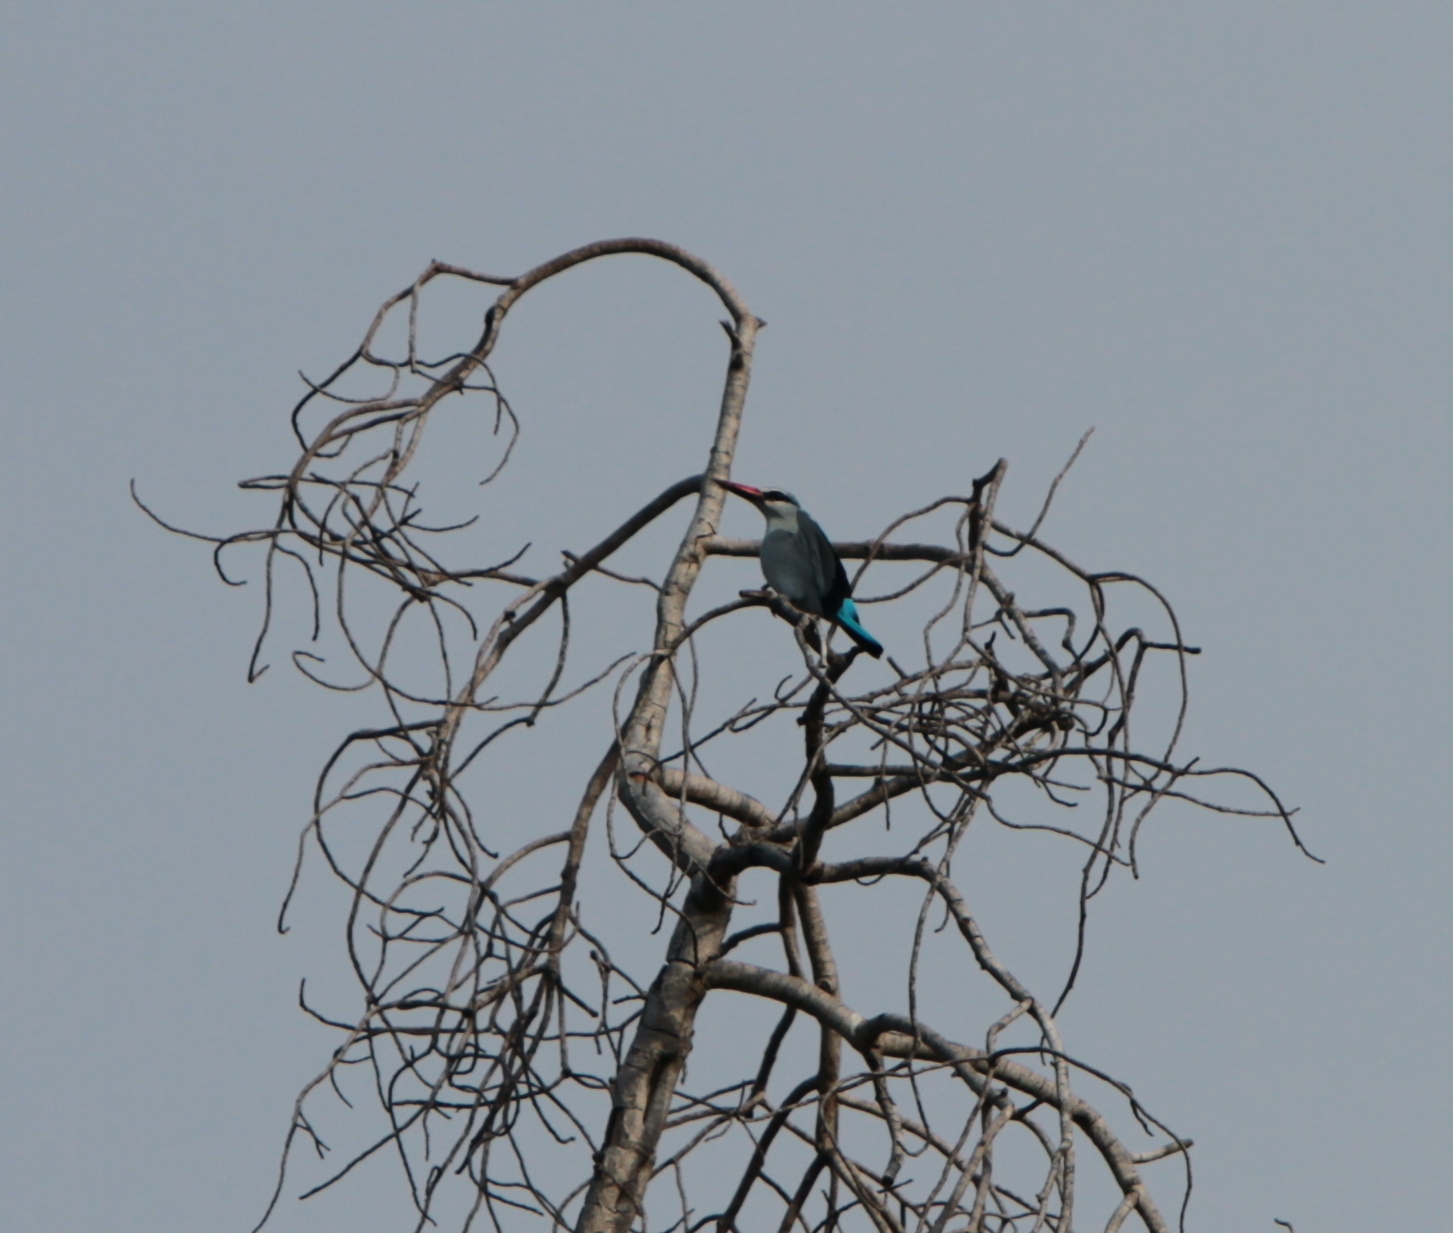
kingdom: Animalia
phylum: Chordata
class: Aves
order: Coraciiformes
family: Alcedinidae
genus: Halcyon
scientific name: Halcyon senegalensis
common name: Woodland kingfisher
